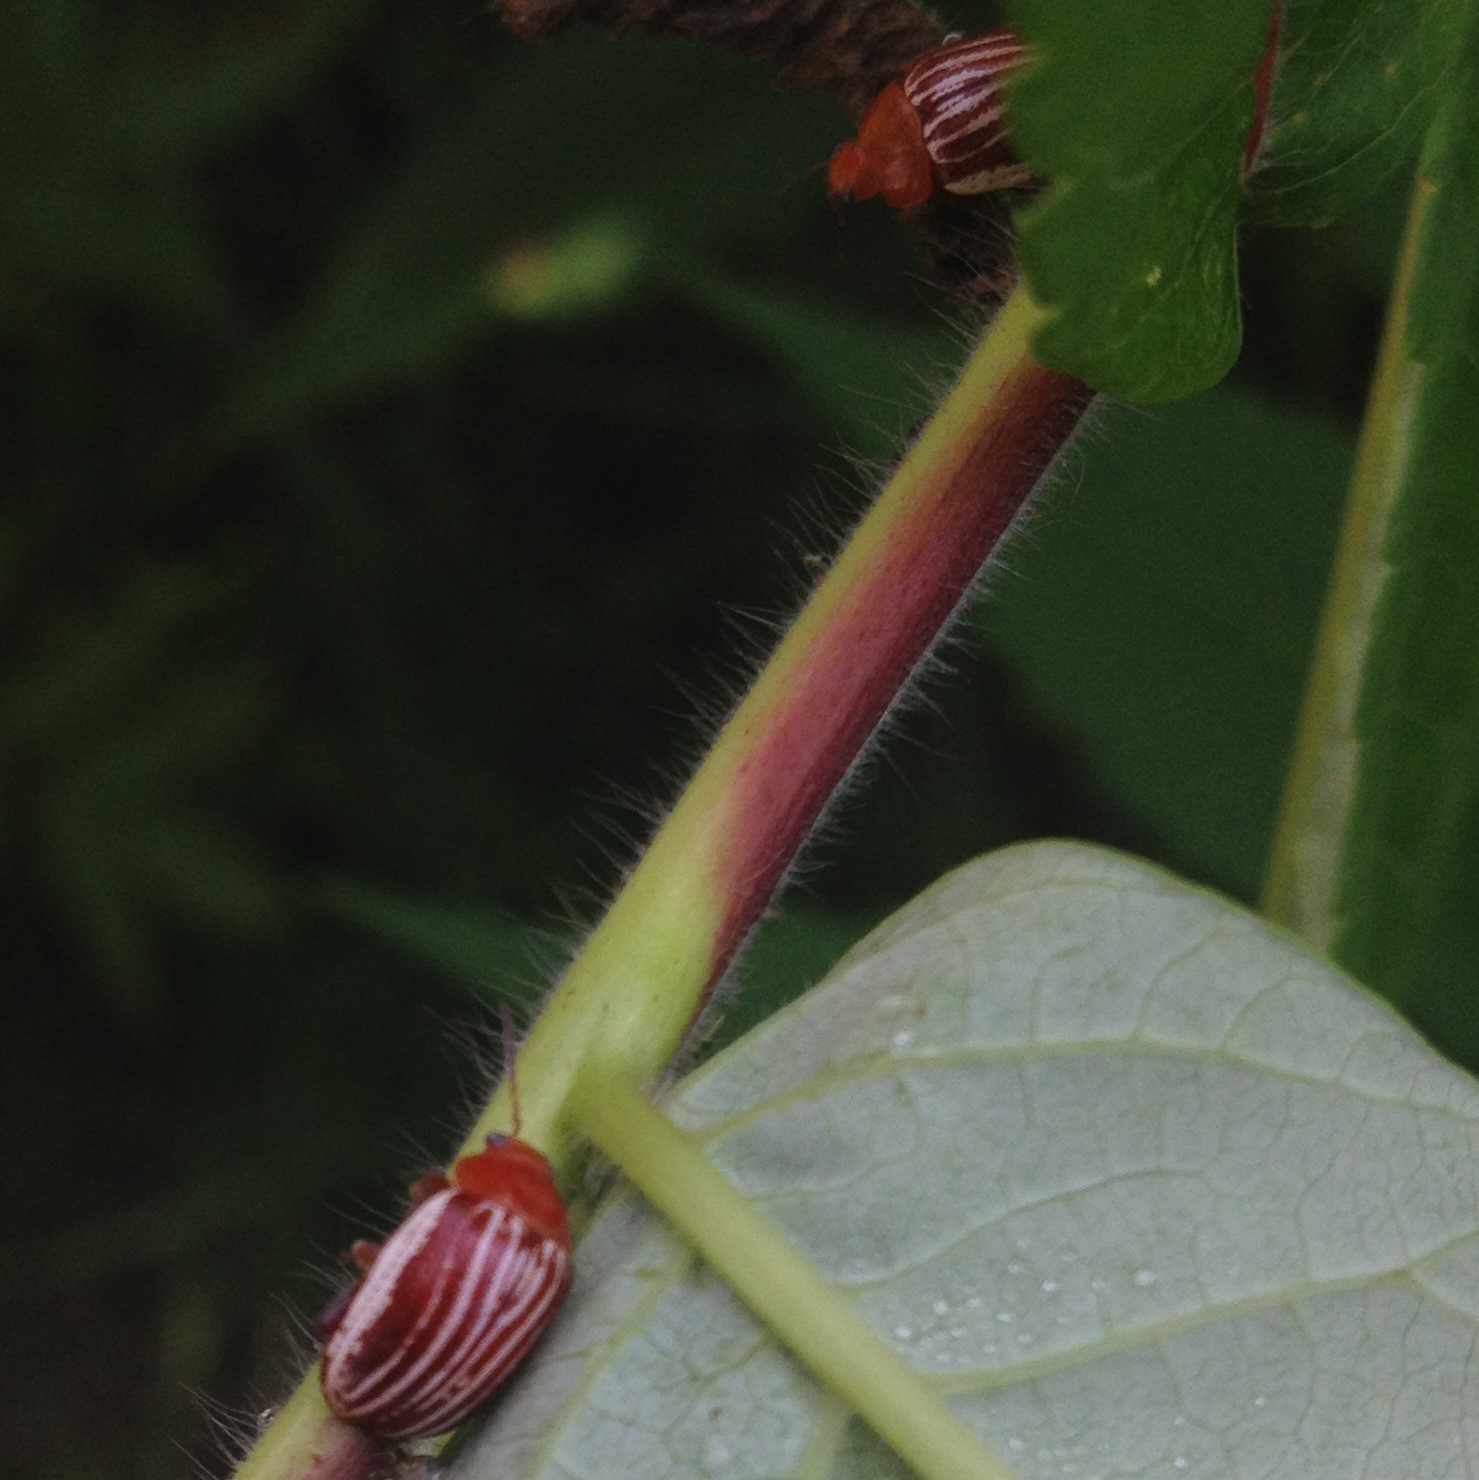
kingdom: Animalia
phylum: Arthropoda
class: Insecta
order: Coleoptera
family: Chrysomelidae
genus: Blepharida
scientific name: Blepharida rhois
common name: Sumac flea beetle
